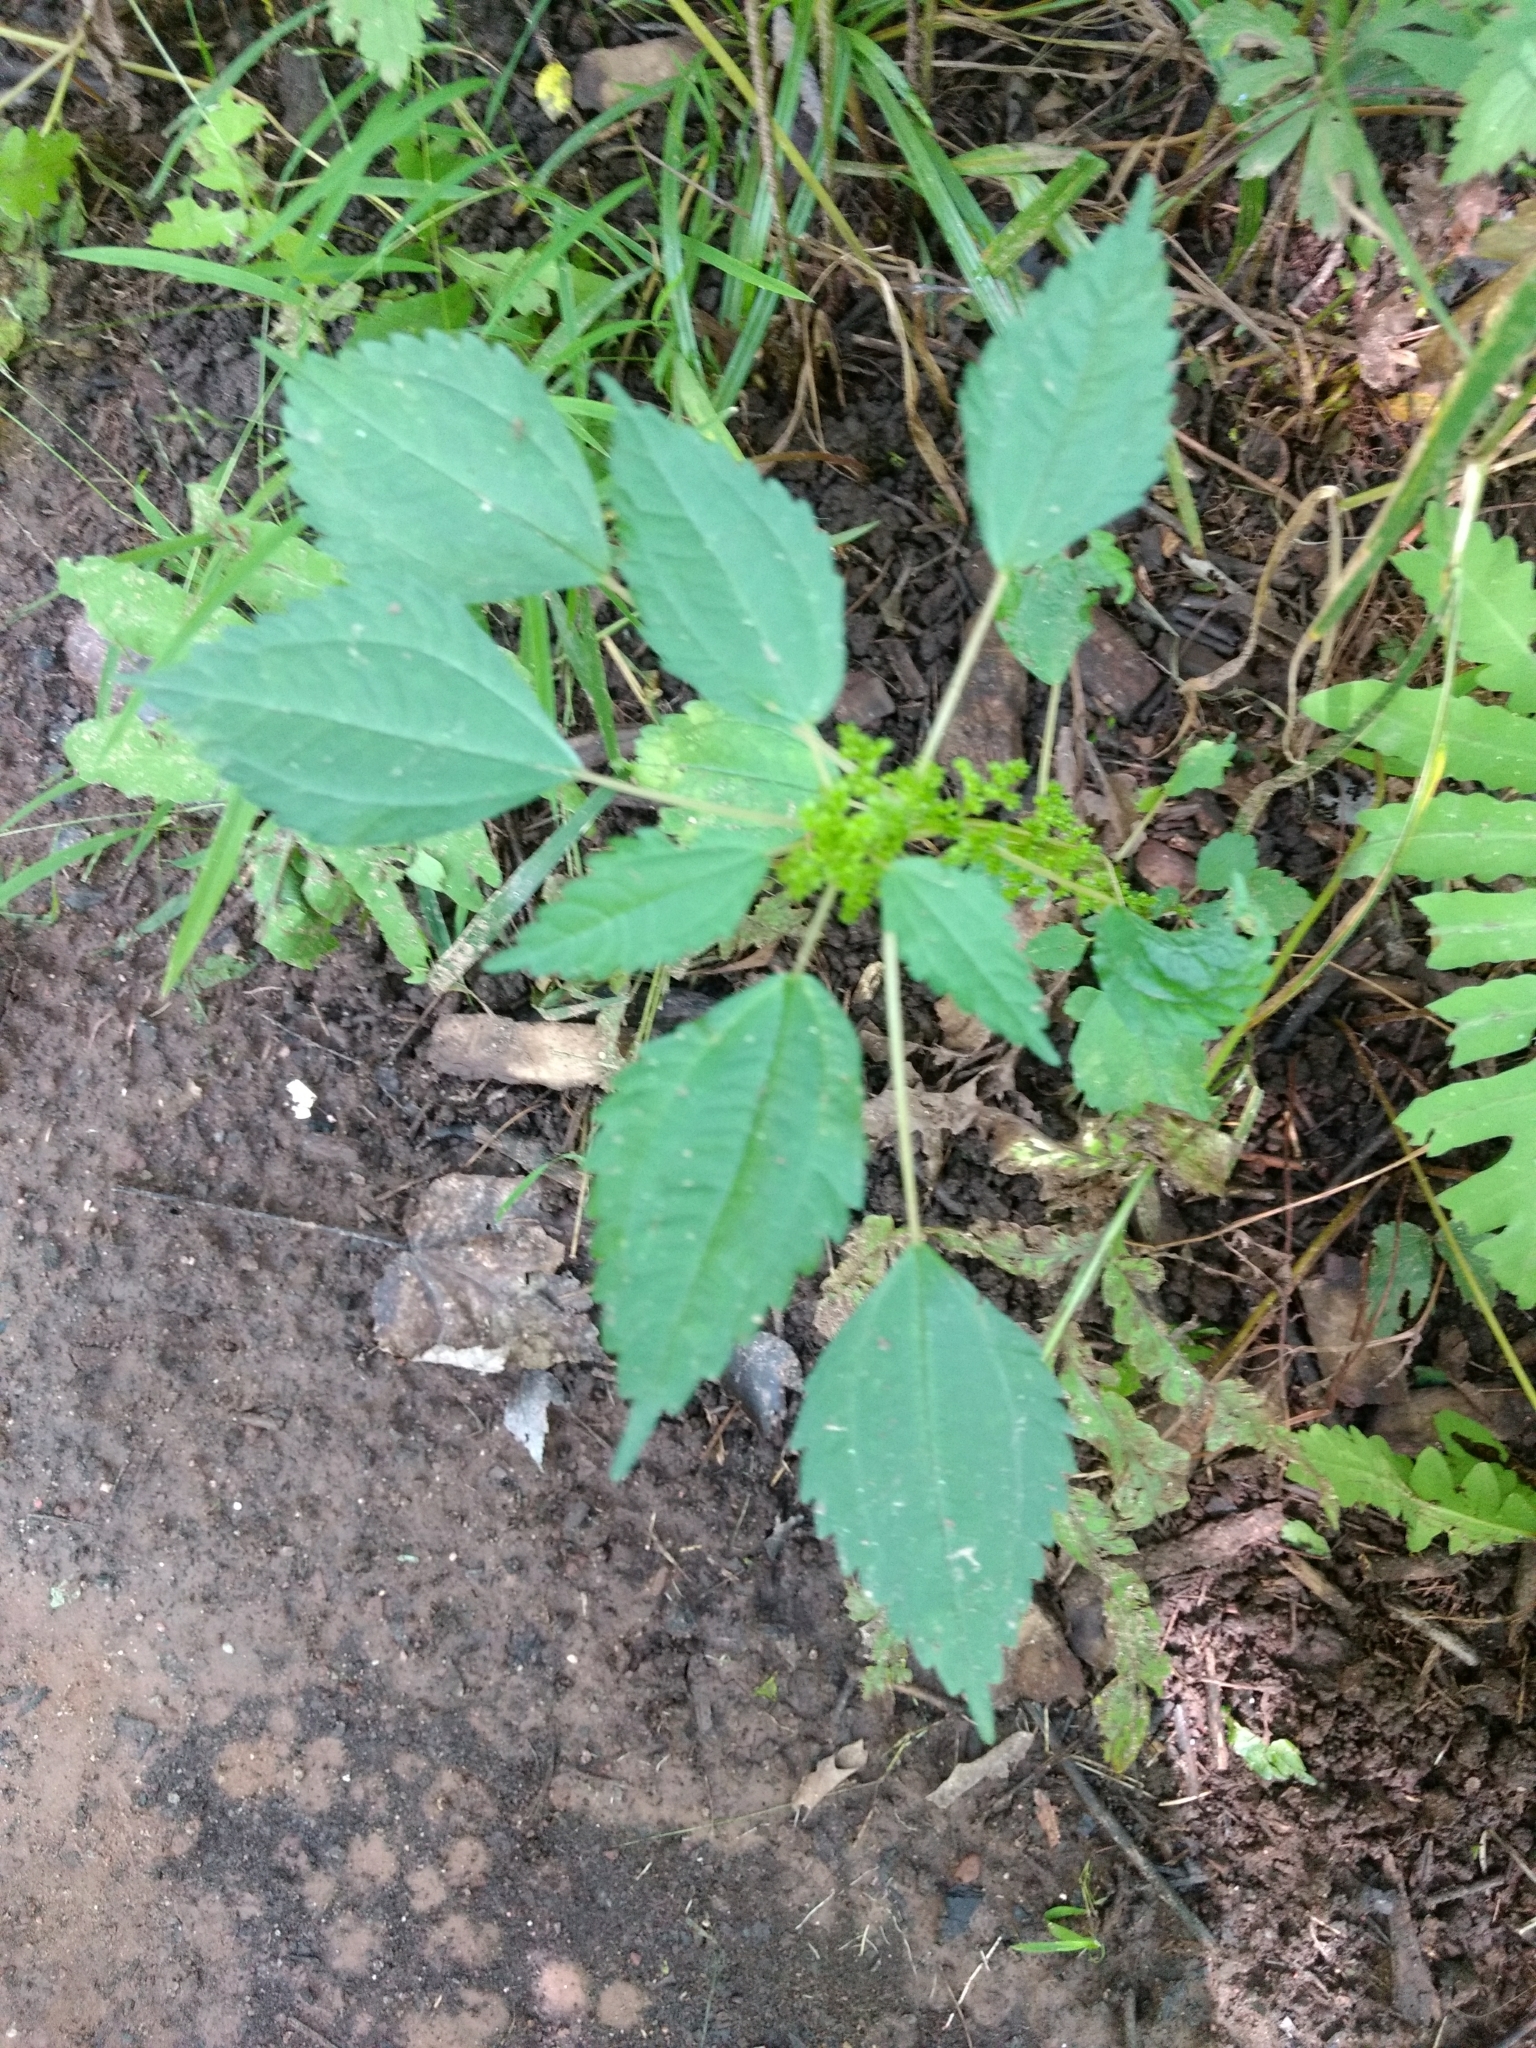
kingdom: Plantae
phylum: Tracheophyta
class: Magnoliopsida
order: Rosales
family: Urticaceae
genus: Pilea
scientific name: Pilea pumila
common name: Clearweed
